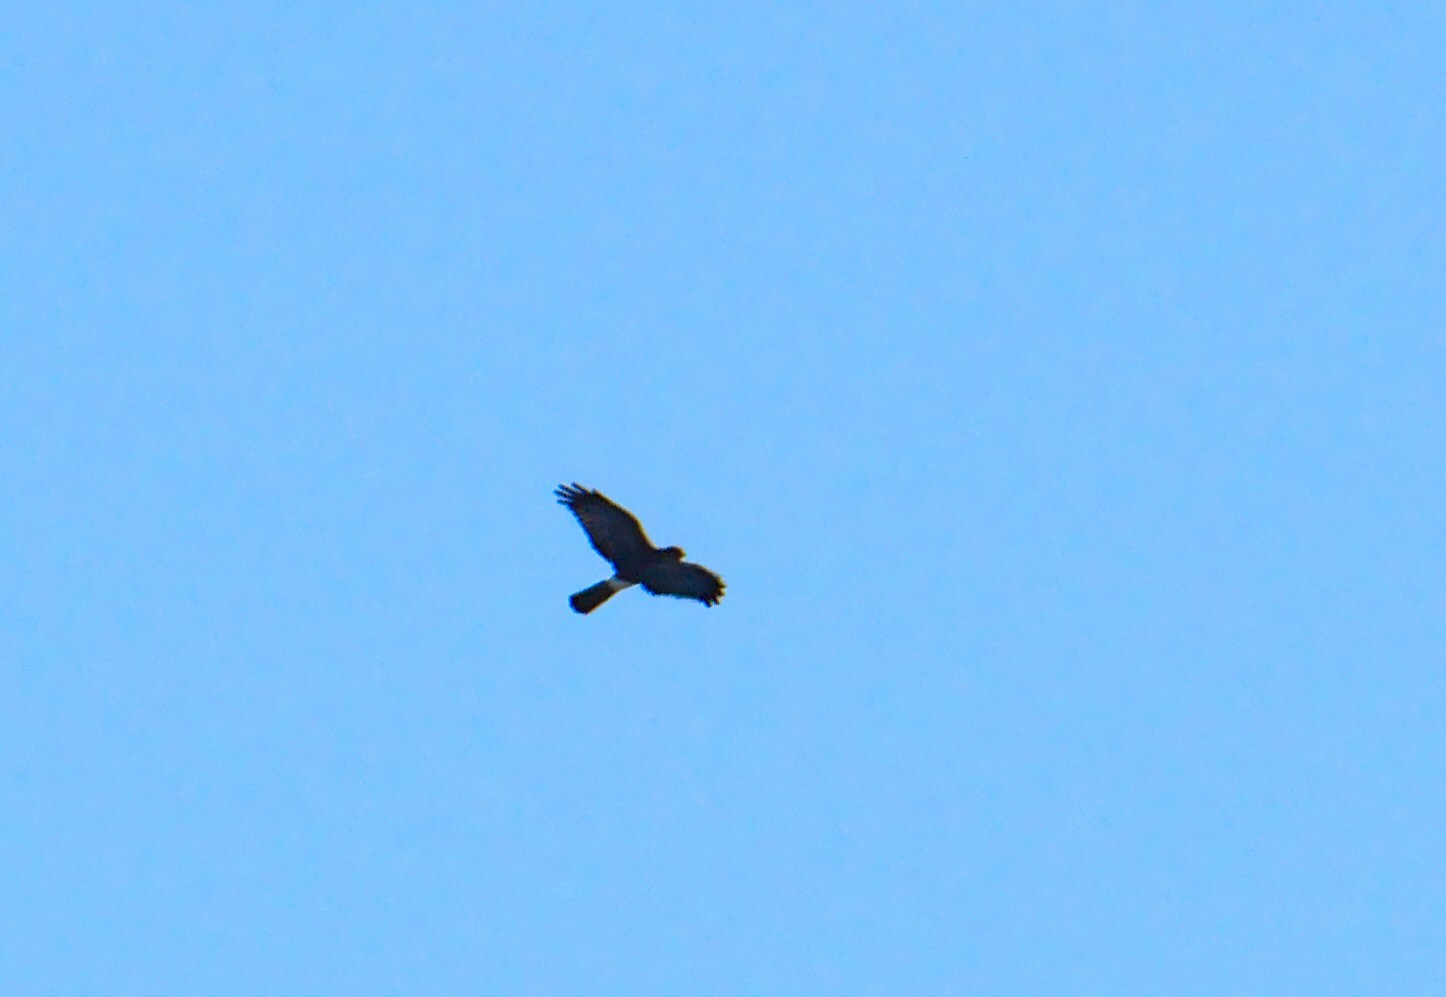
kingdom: Animalia
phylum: Chordata
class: Aves
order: Accipitriformes
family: Accipitridae
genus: Circus
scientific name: Circus cyaneus
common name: Hen harrier
